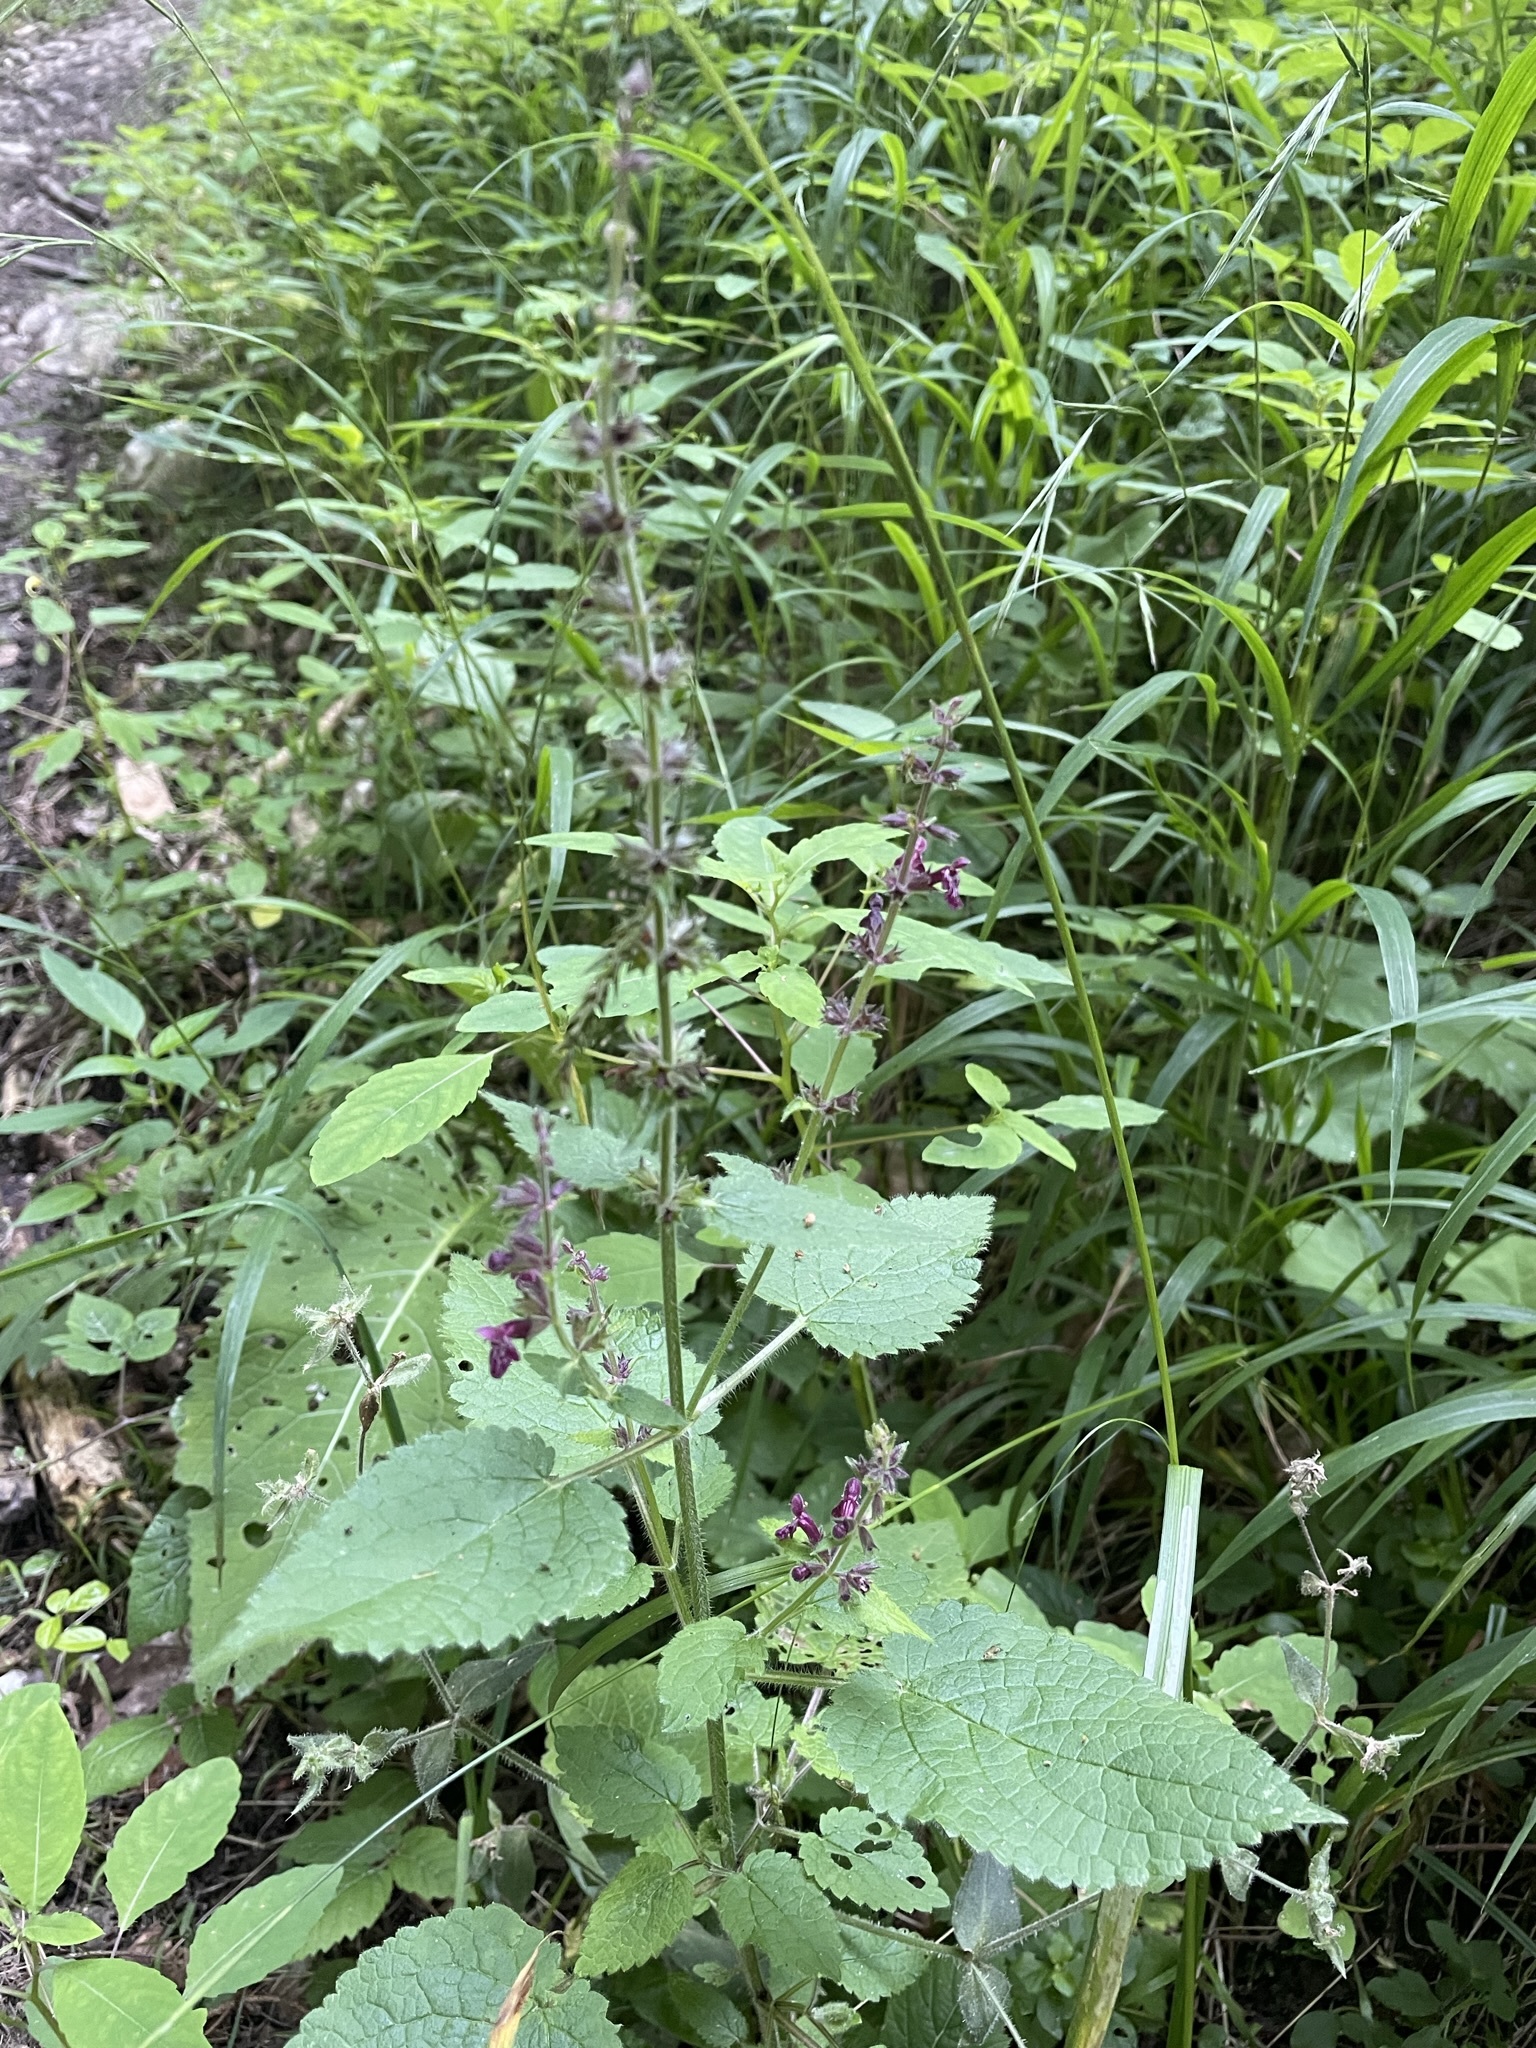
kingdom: Plantae
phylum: Tracheophyta
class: Magnoliopsida
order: Lamiales
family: Lamiaceae
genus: Stachys
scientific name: Stachys sylvatica
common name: Hedge woundwort
